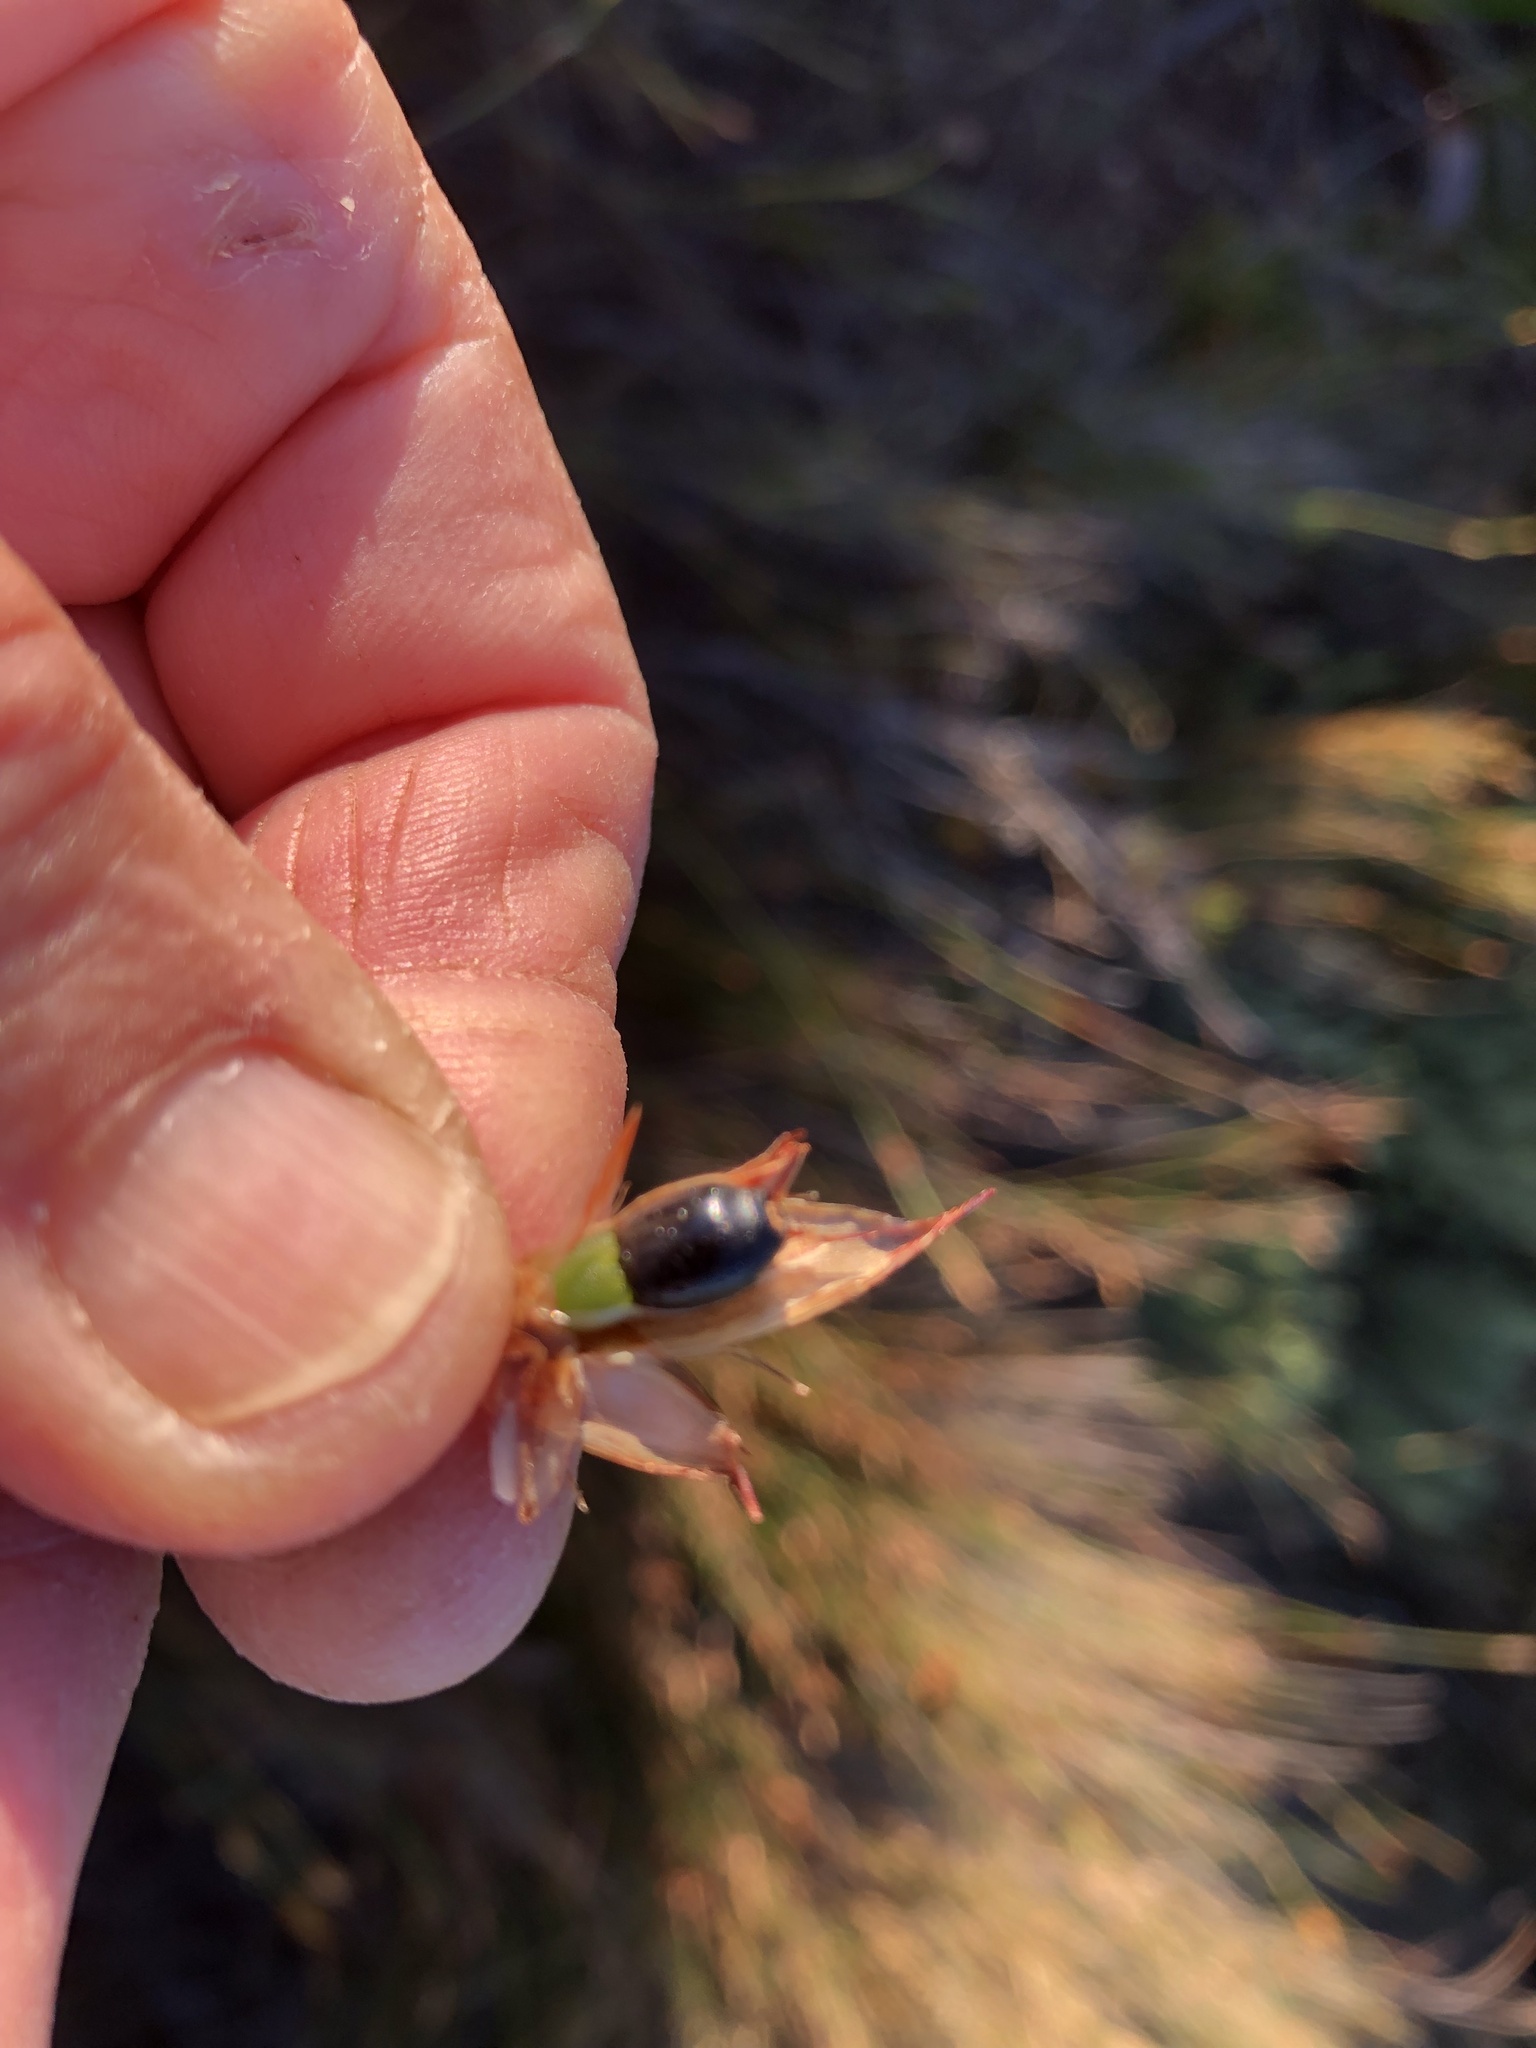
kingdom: Plantae
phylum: Tracheophyta
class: Liliopsida
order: Poales
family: Restionaceae
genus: Willdenowia
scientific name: Willdenowia glomerata
